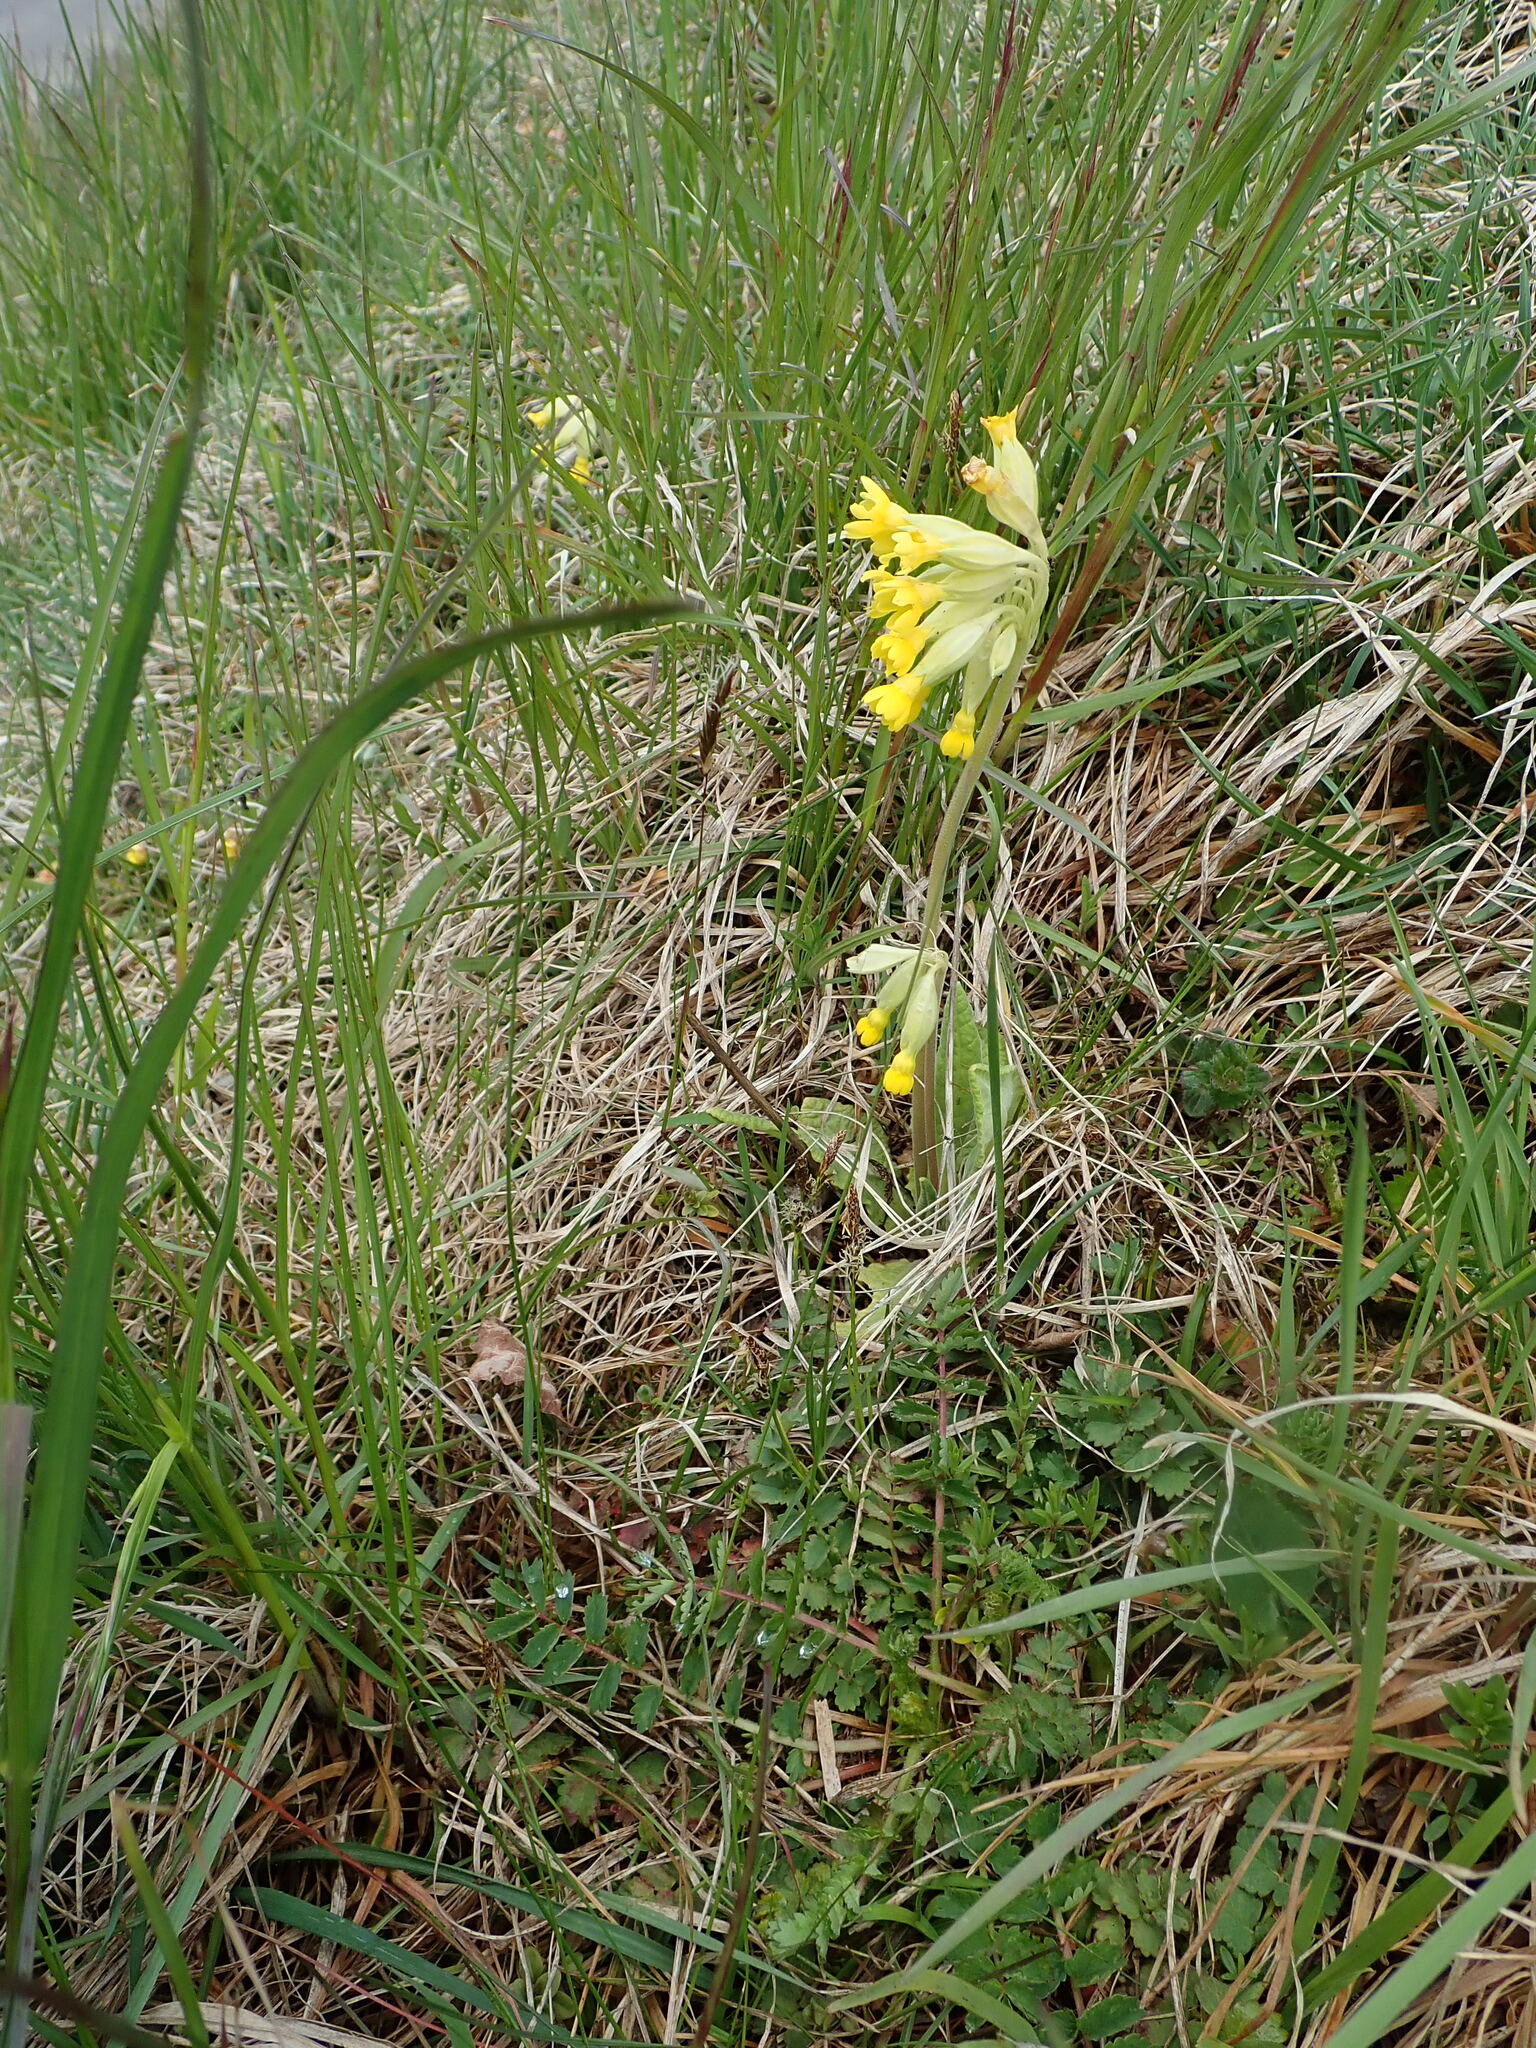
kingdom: Plantae
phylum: Tracheophyta
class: Magnoliopsida
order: Ericales
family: Primulaceae
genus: Primula
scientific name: Primula veris
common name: Cowslip
